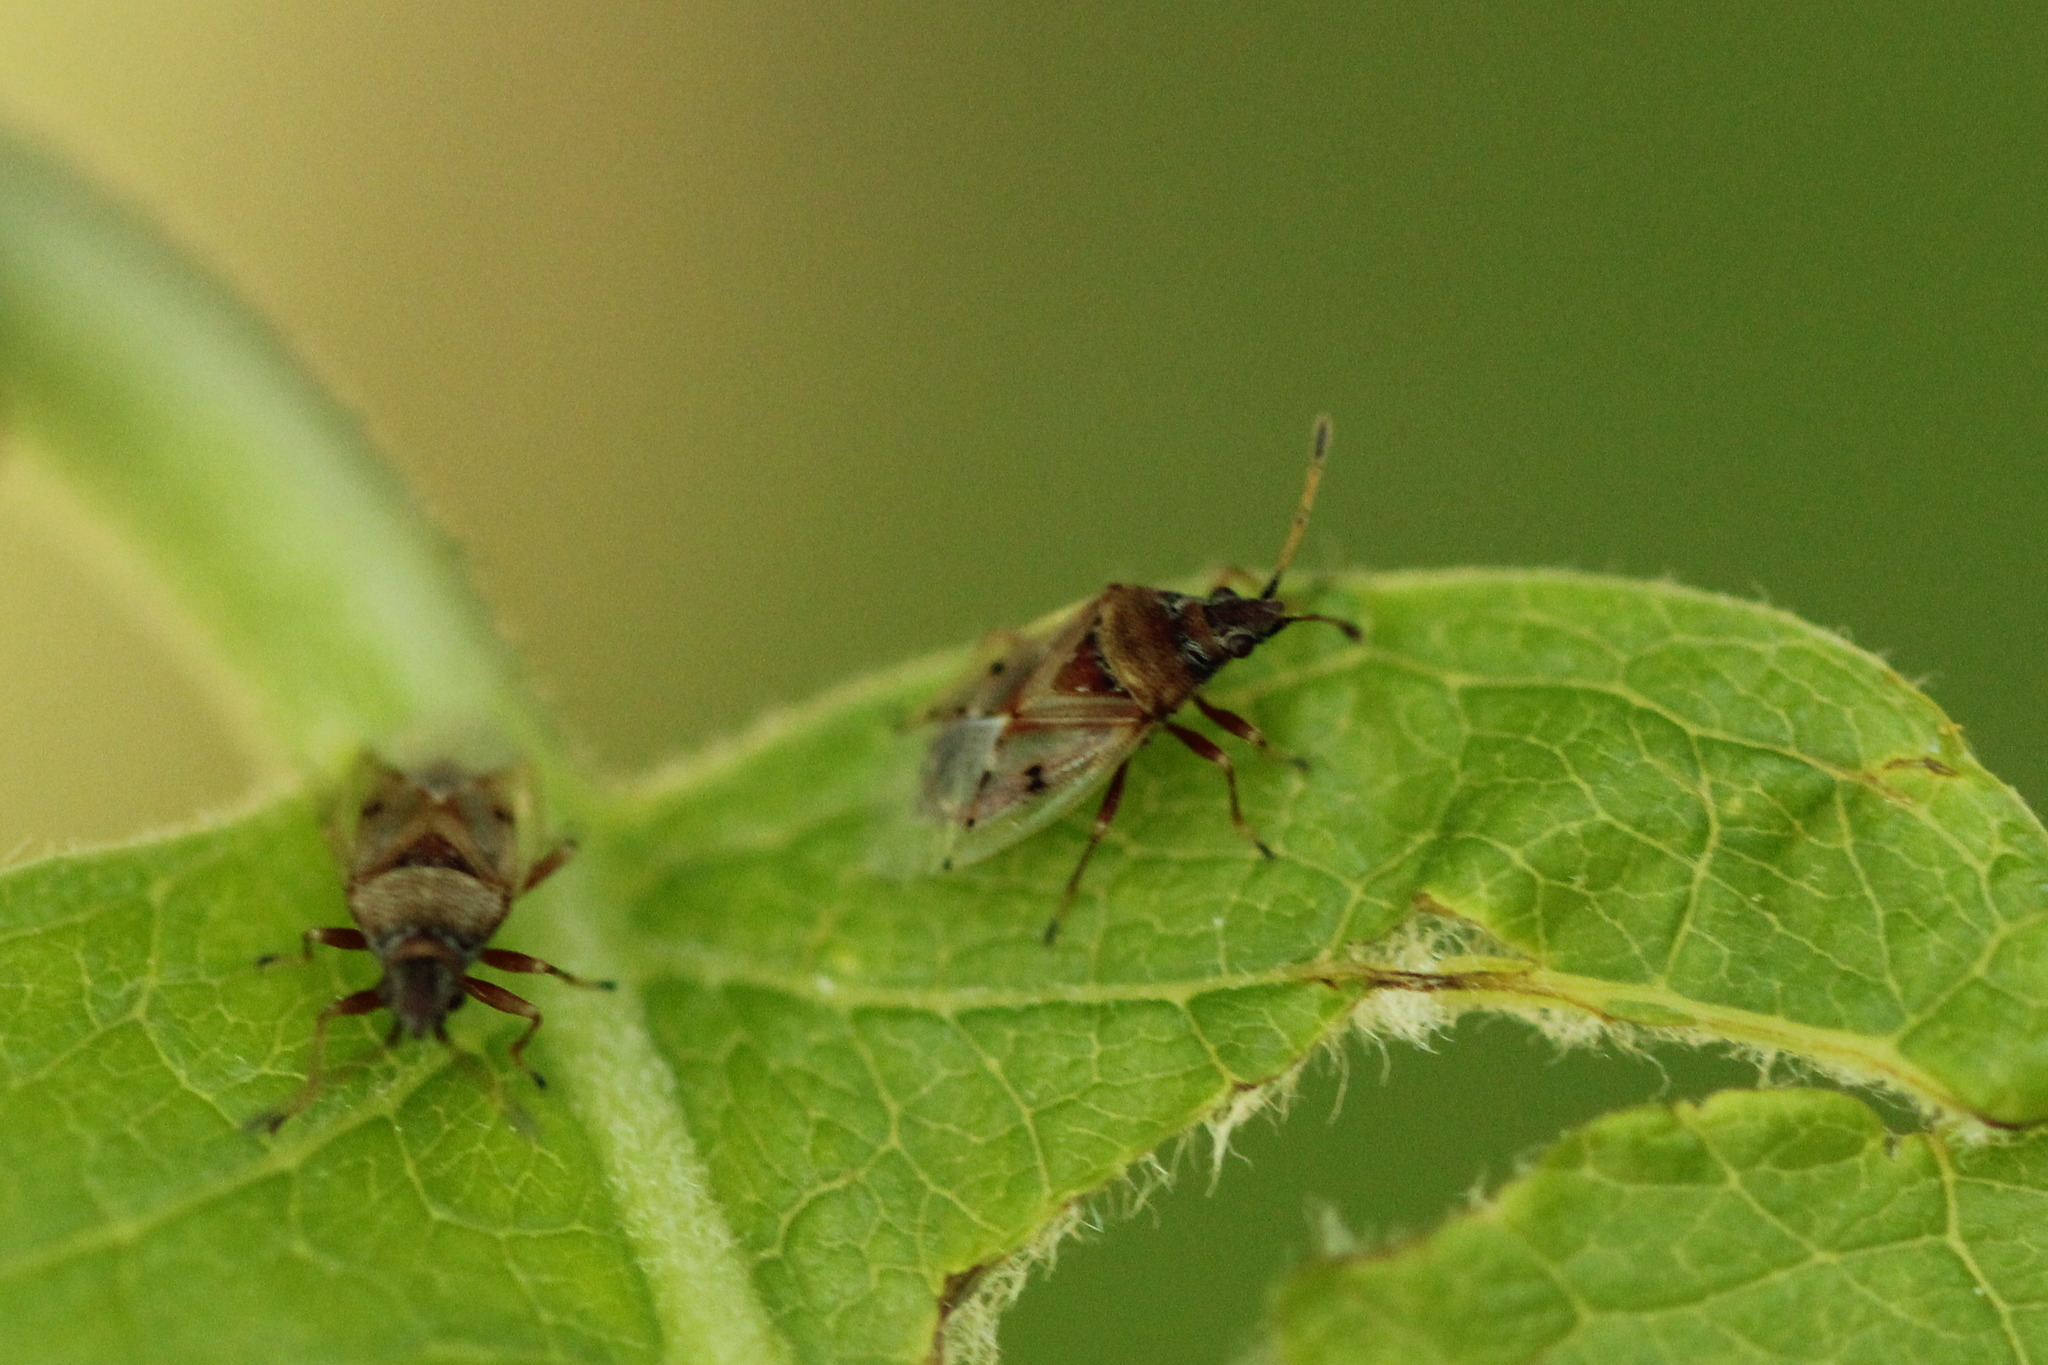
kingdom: Animalia
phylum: Arthropoda
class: Insecta
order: Hemiptera
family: Lygaeidae
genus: Kleidocerys
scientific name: Kleidocerys resedae
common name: Birch catkin bug
